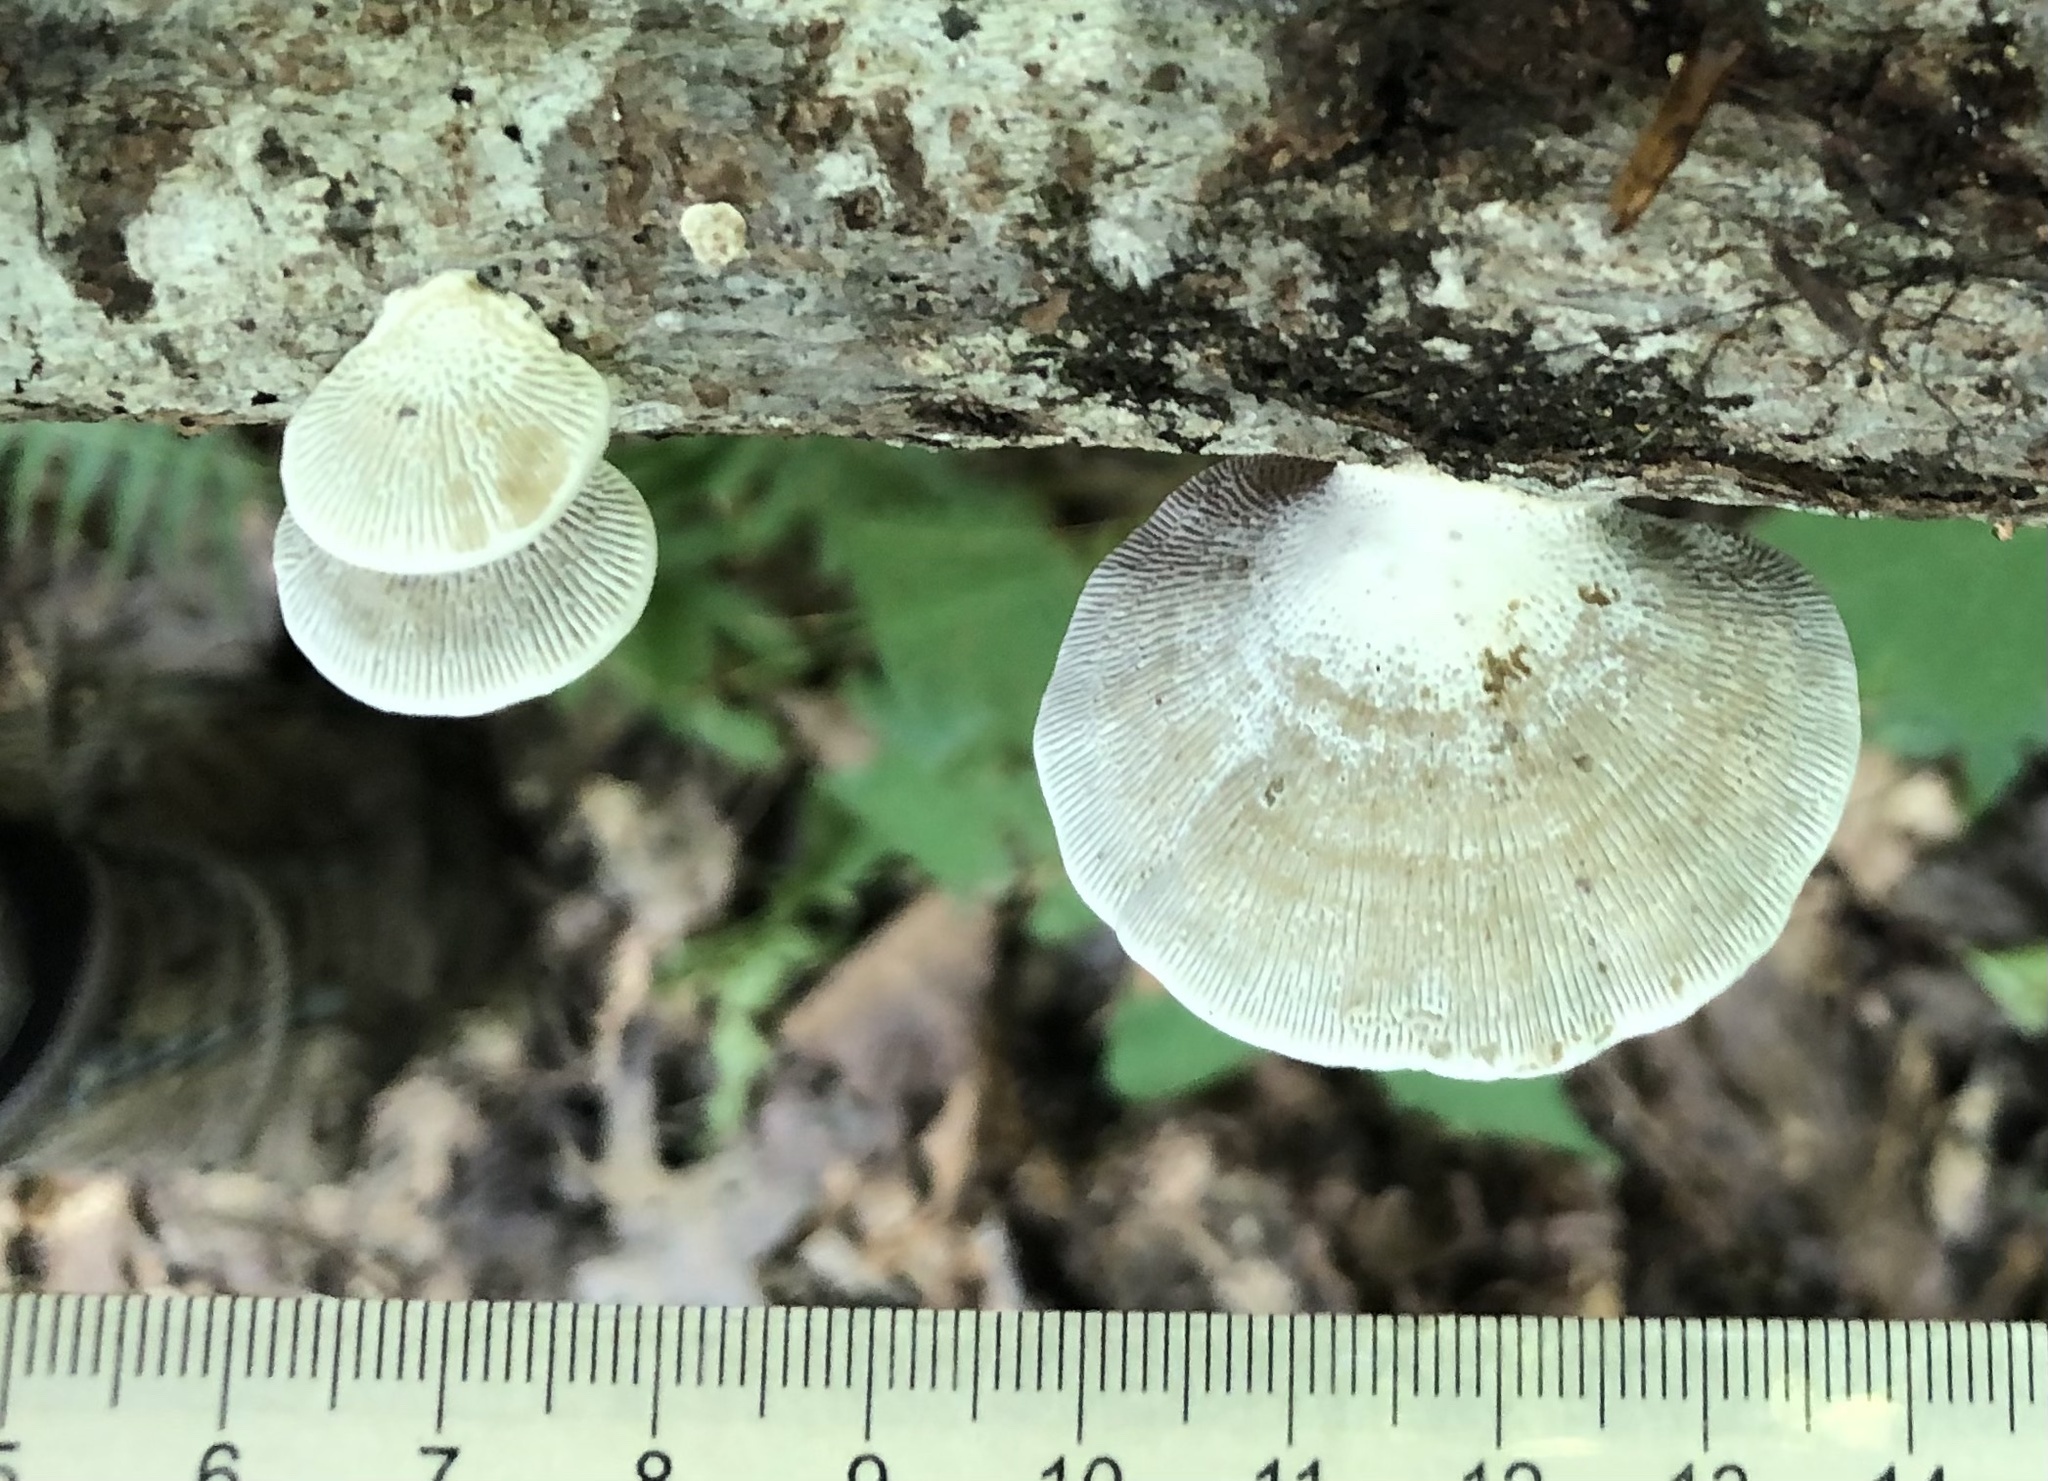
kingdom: Fungi
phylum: Basidiomycota
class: Agaricomycetes
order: Polyporales
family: Polyporaceae
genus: Daedaleopsis
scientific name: Daedaleopsis confragosa
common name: Blushing bracket
